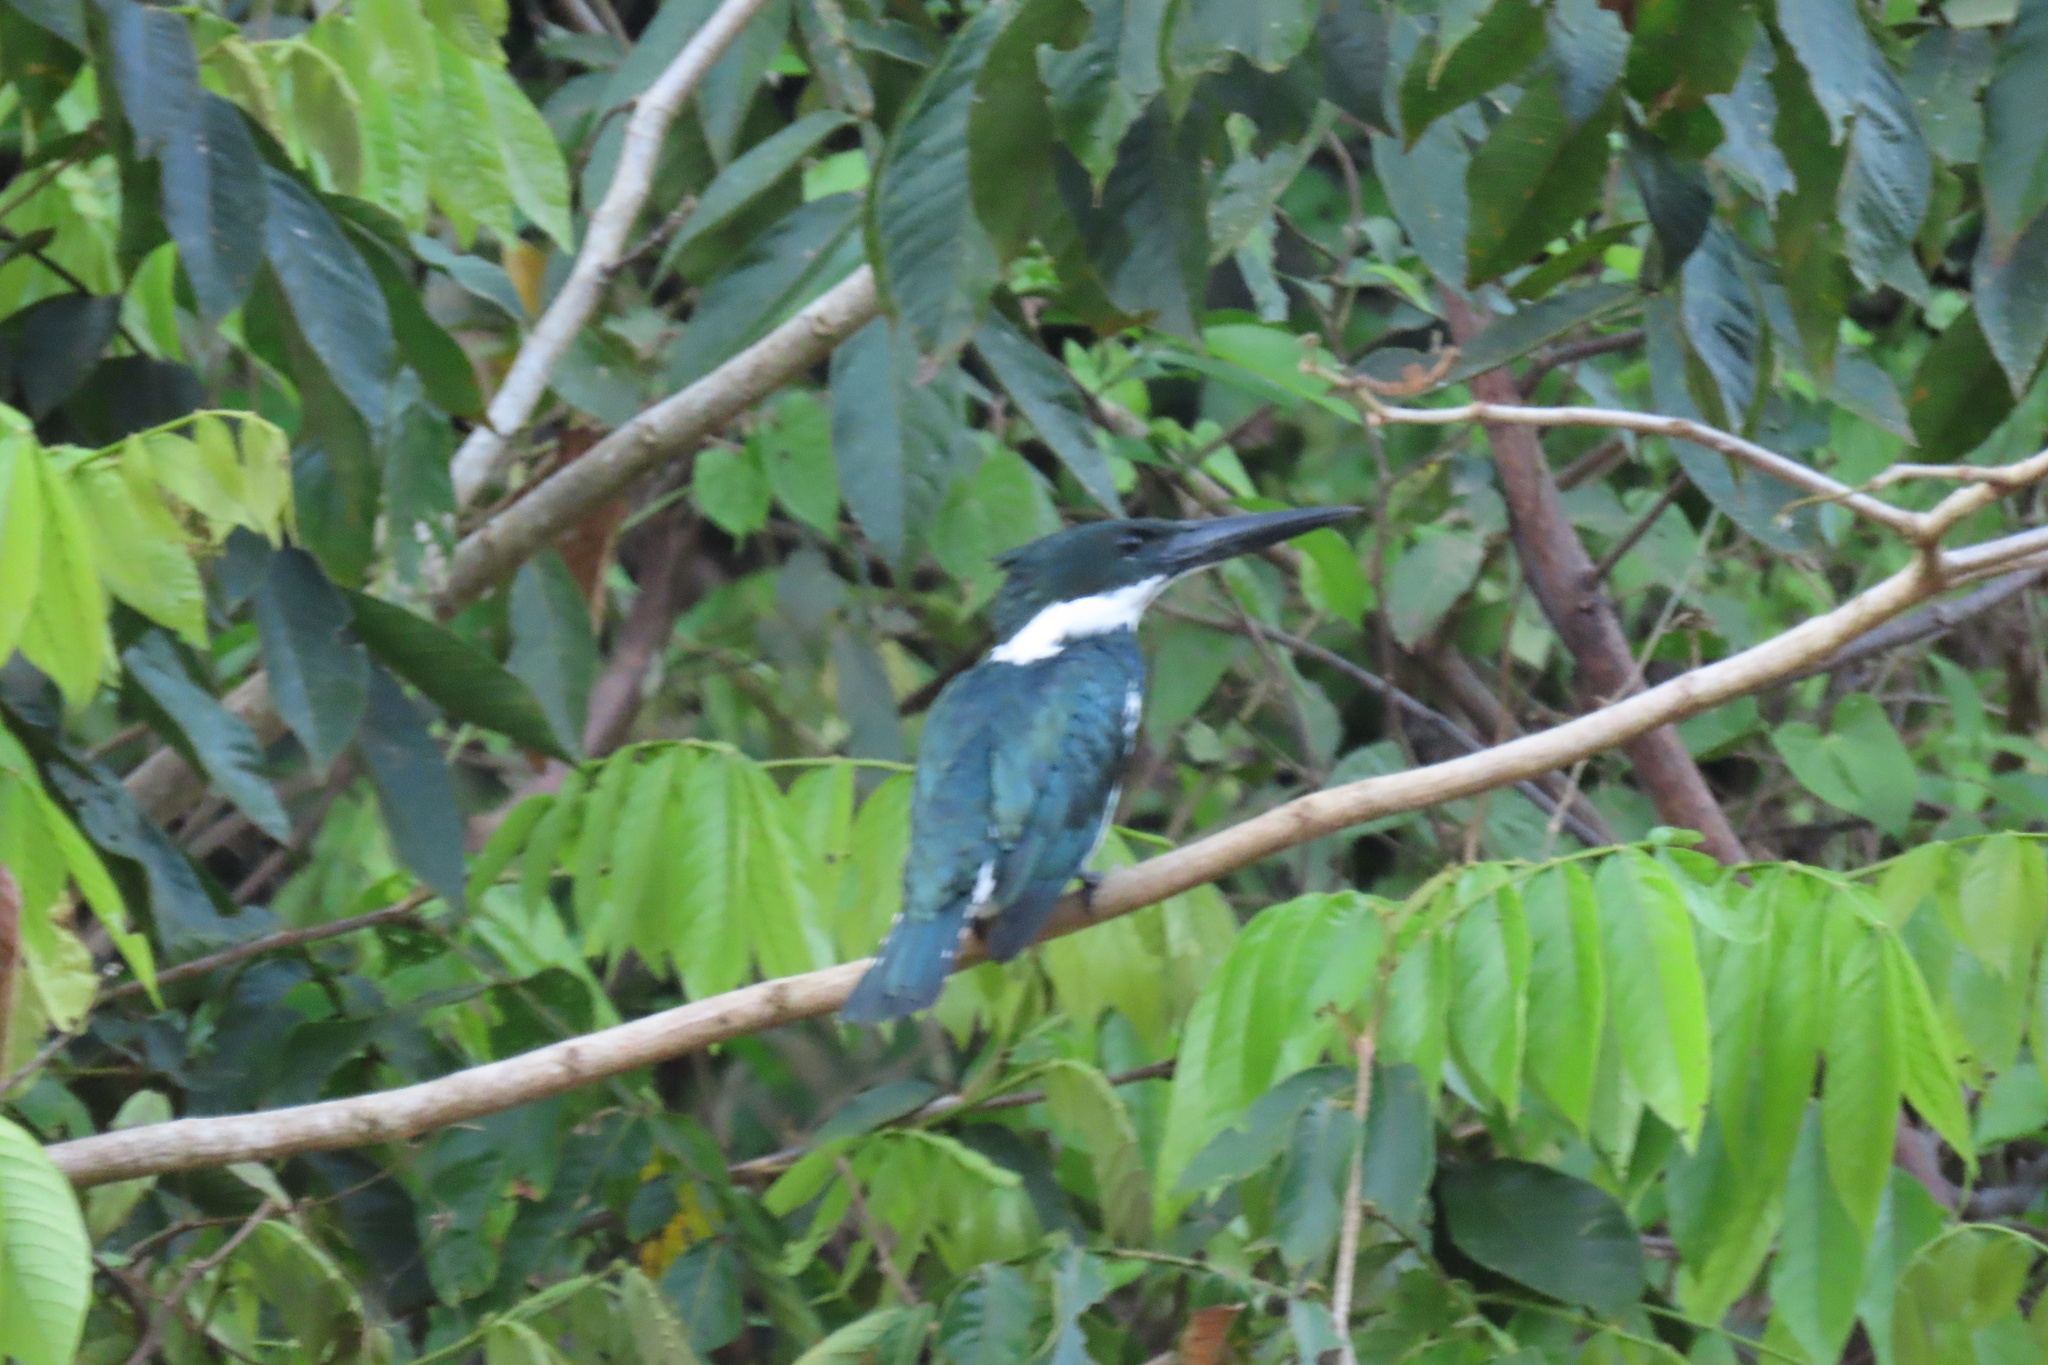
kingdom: Animalia
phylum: Chordata
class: Aves
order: Coraciiformes
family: Alcedinidae
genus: Chloroceryle
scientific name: Chloroceryle amazona
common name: Amazon kingfisher
